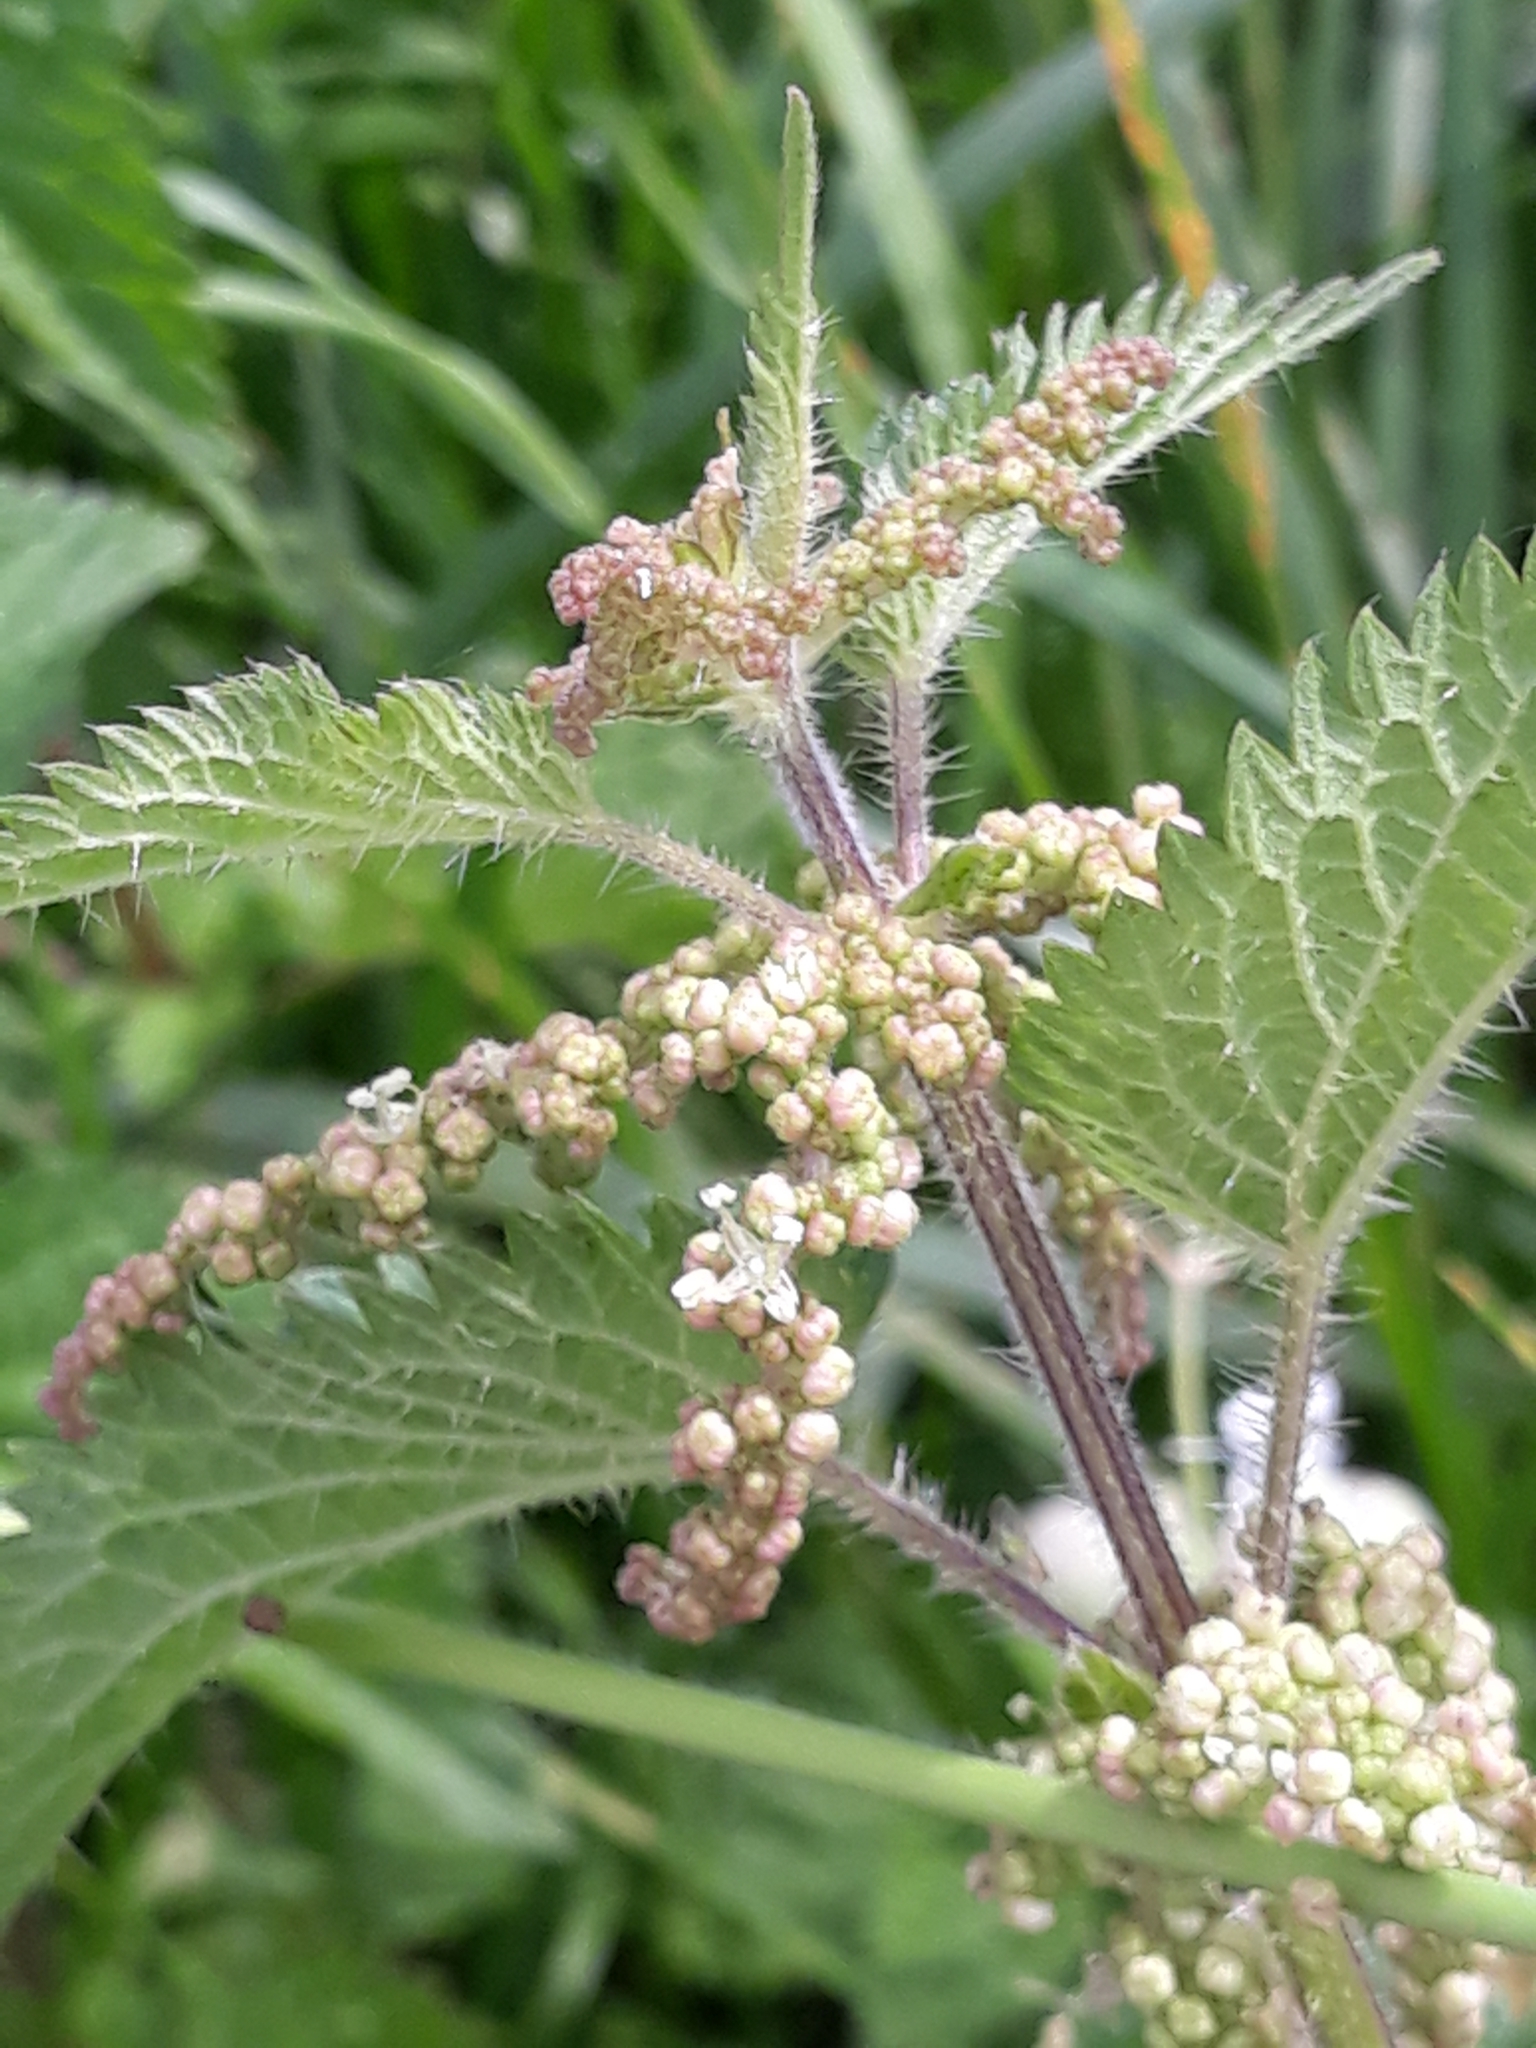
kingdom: Plantae
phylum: Tracheophyta
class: Magnoliopsida
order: Rosales
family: Urticaceae
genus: Urtica
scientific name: Urtica dioica
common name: Common nettle
